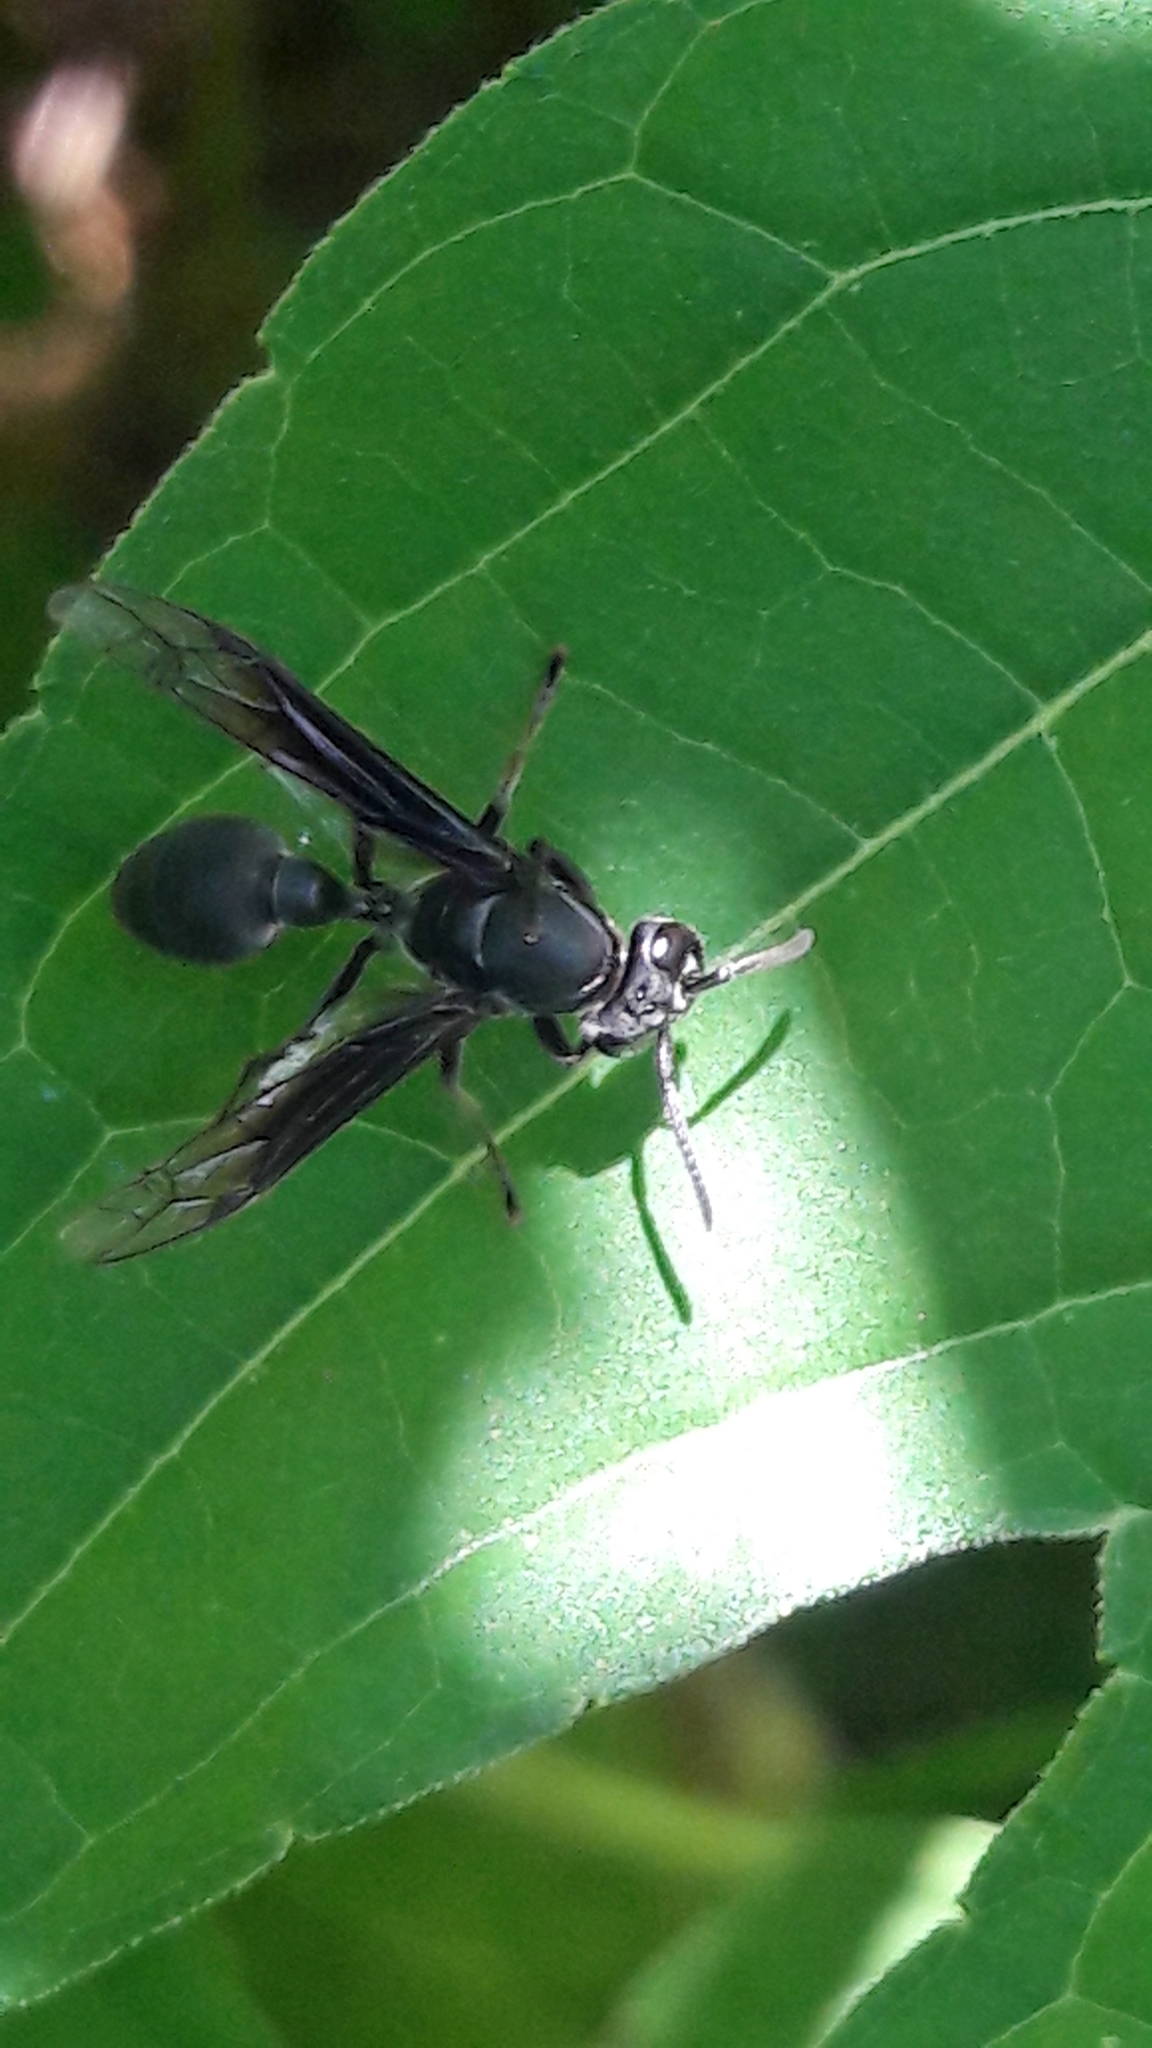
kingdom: Animalia
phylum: Arthropoda
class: Insecta
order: Hymenoptera
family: Eumenidae
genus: Polybia
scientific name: Polybia ignobilis
